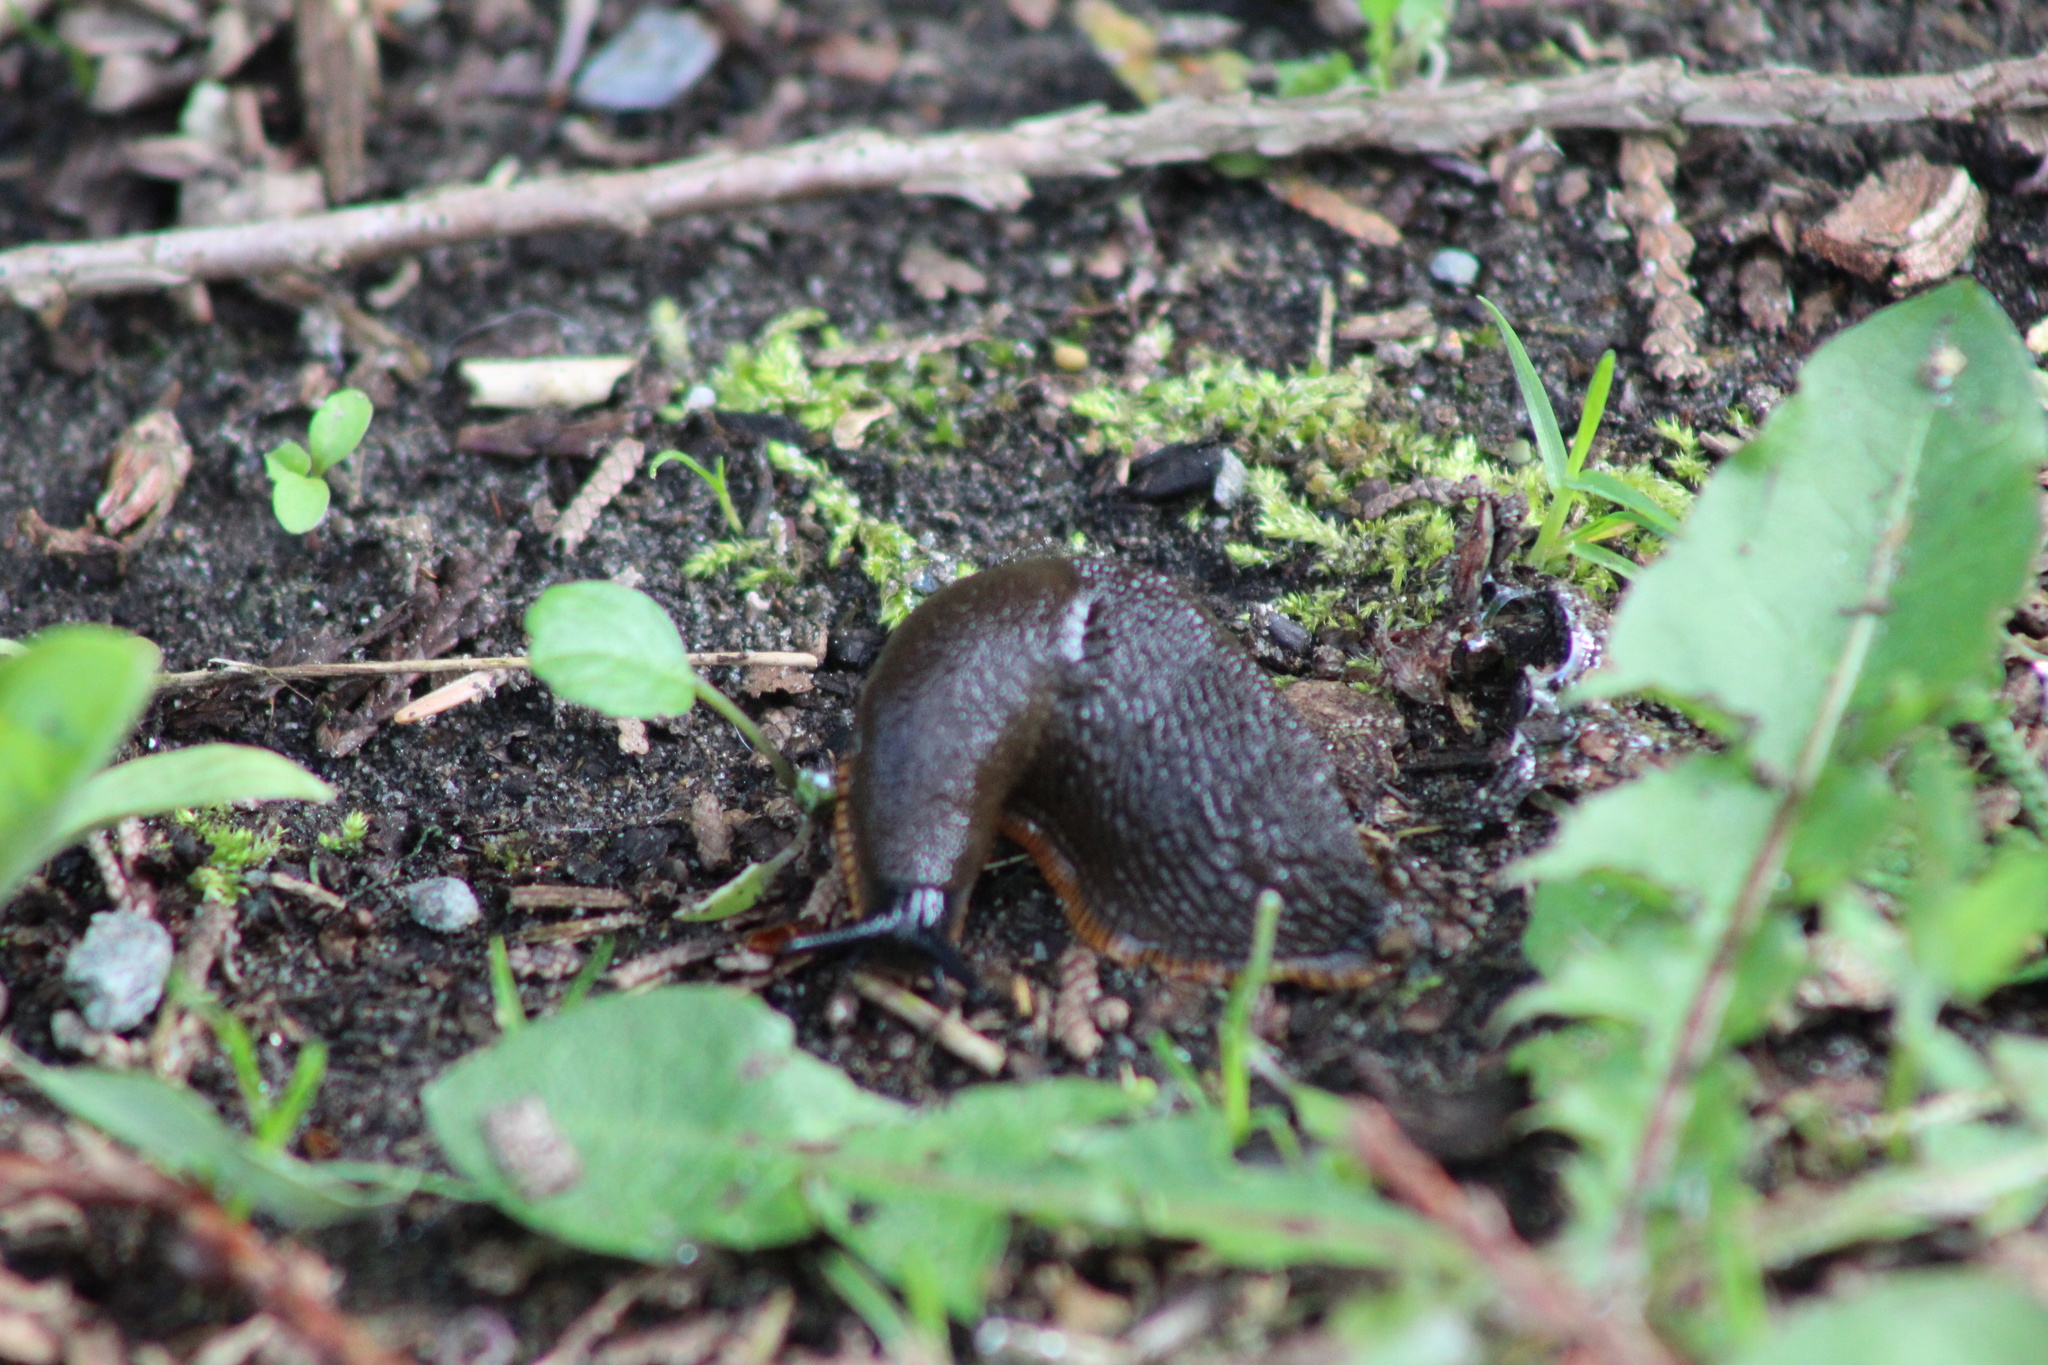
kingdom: Animalia
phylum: Mollusca
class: Gastropoda
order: Stylommatophora
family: Arionidae
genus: Arion
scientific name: Arion rufus
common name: Chocolate arion
